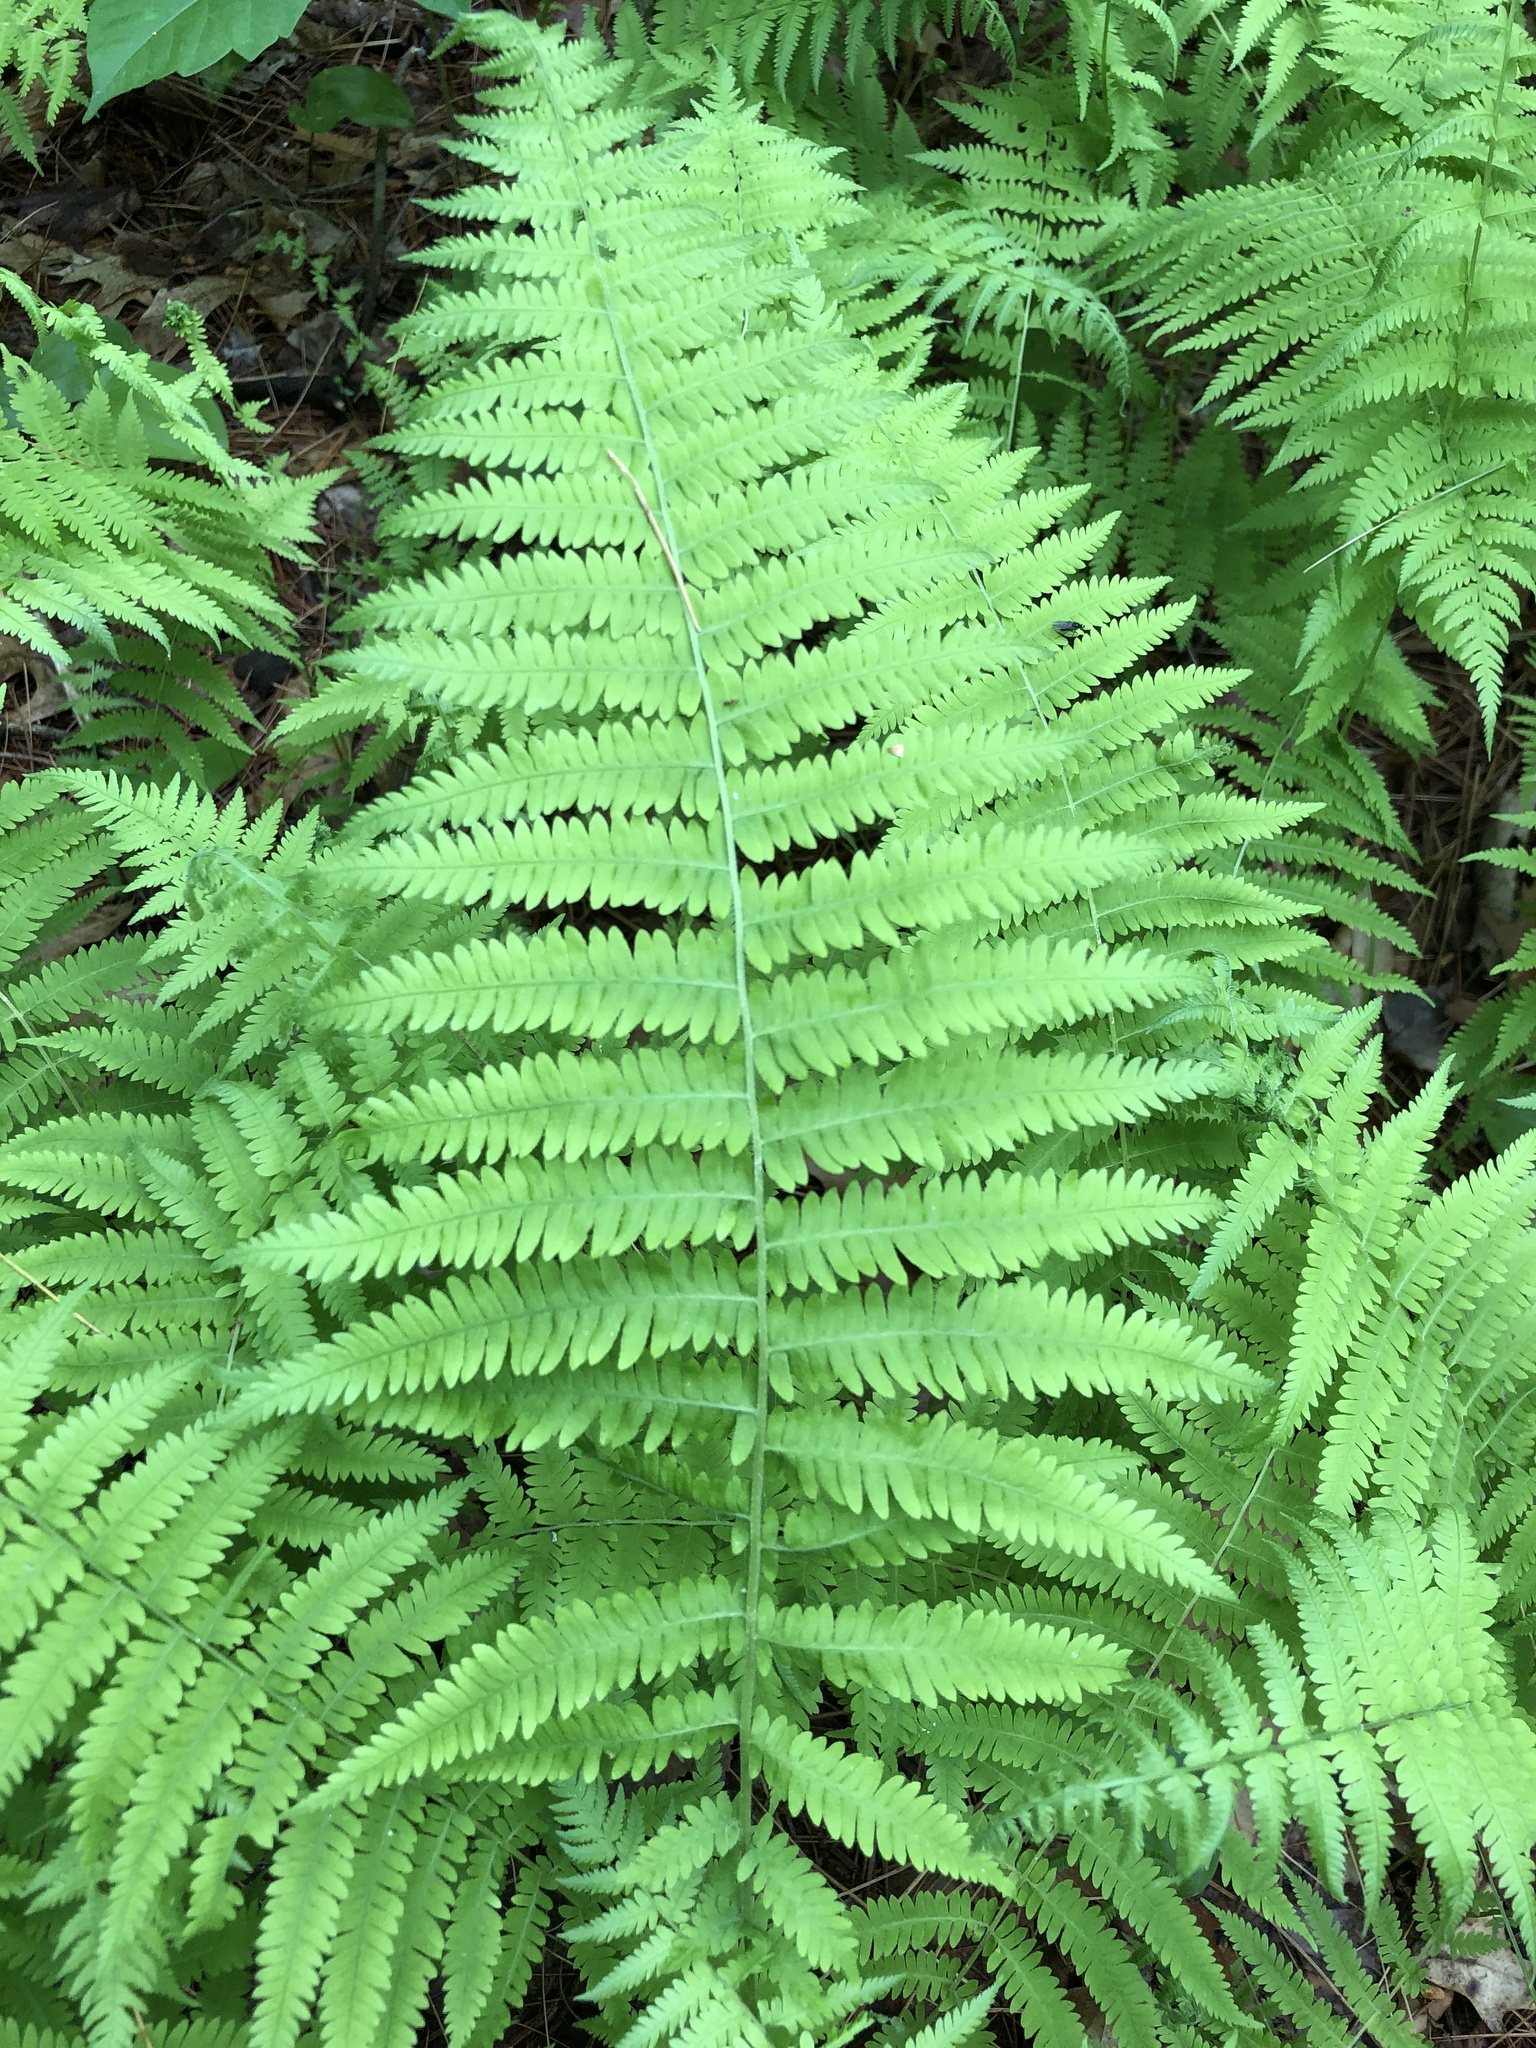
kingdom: Plantae
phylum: Tracheophyta
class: Polypodiopsida
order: Polypodiales
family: Thelypteridaceae
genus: Amauropelta
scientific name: Amauropelta noveboracensis
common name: New york fern
